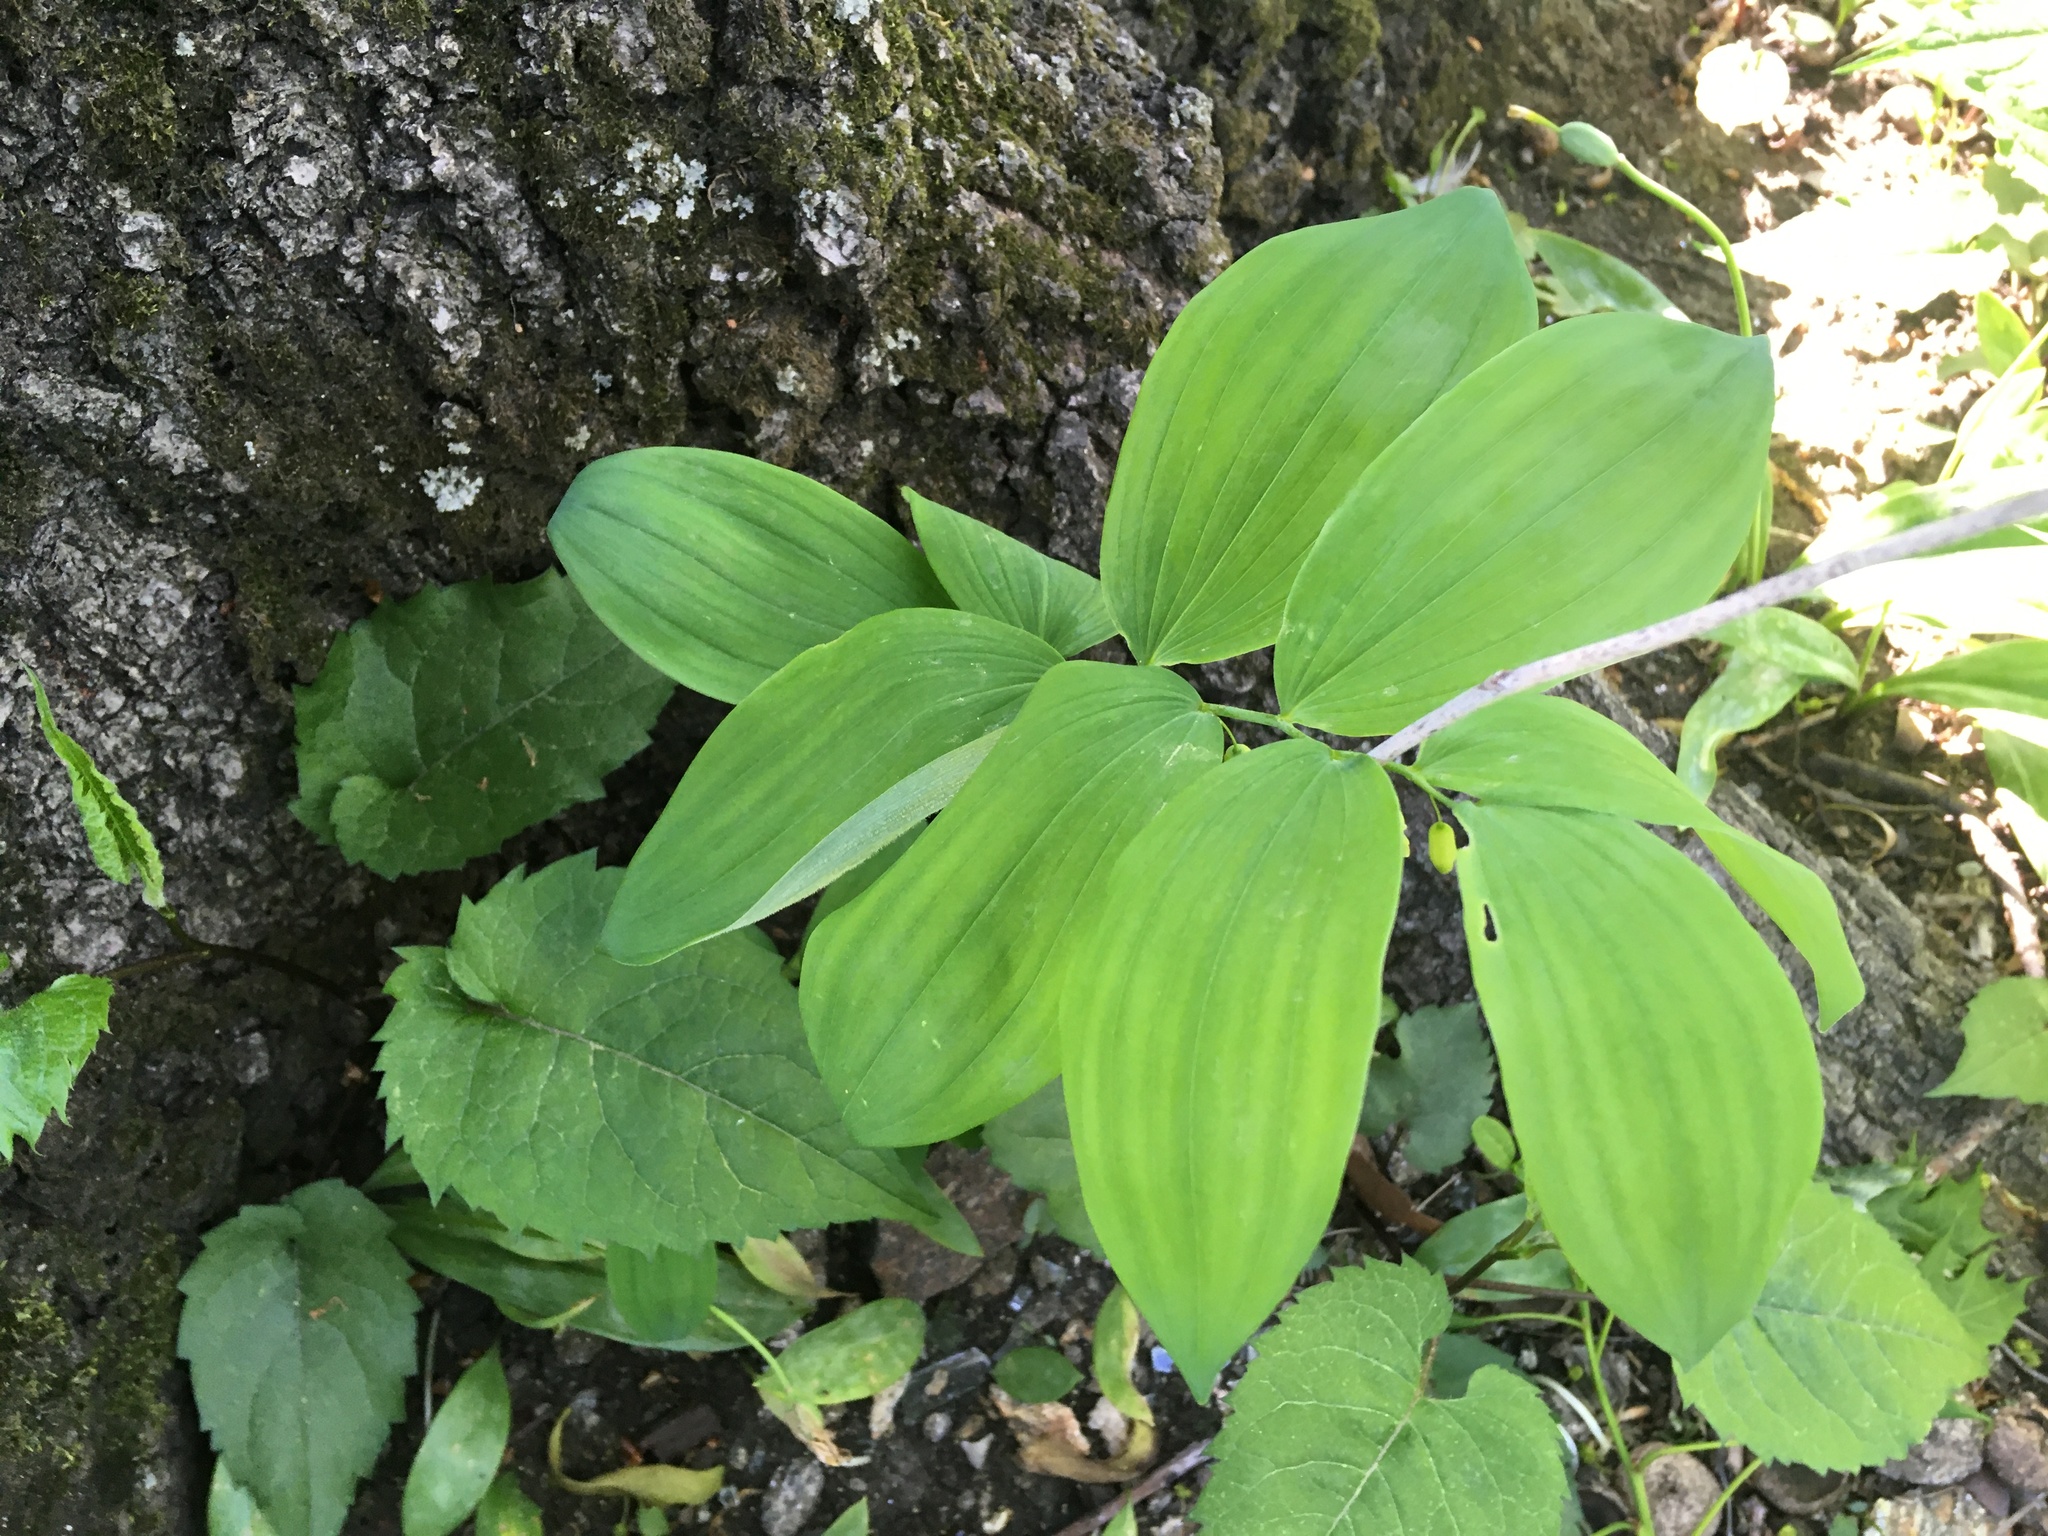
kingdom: Plantae
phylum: Tracheophyta
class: Liliopsida
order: Asparagales
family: Asparagaceae
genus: Polygonatum
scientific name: Polygonatum pubescens
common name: Downy solomon's seal
